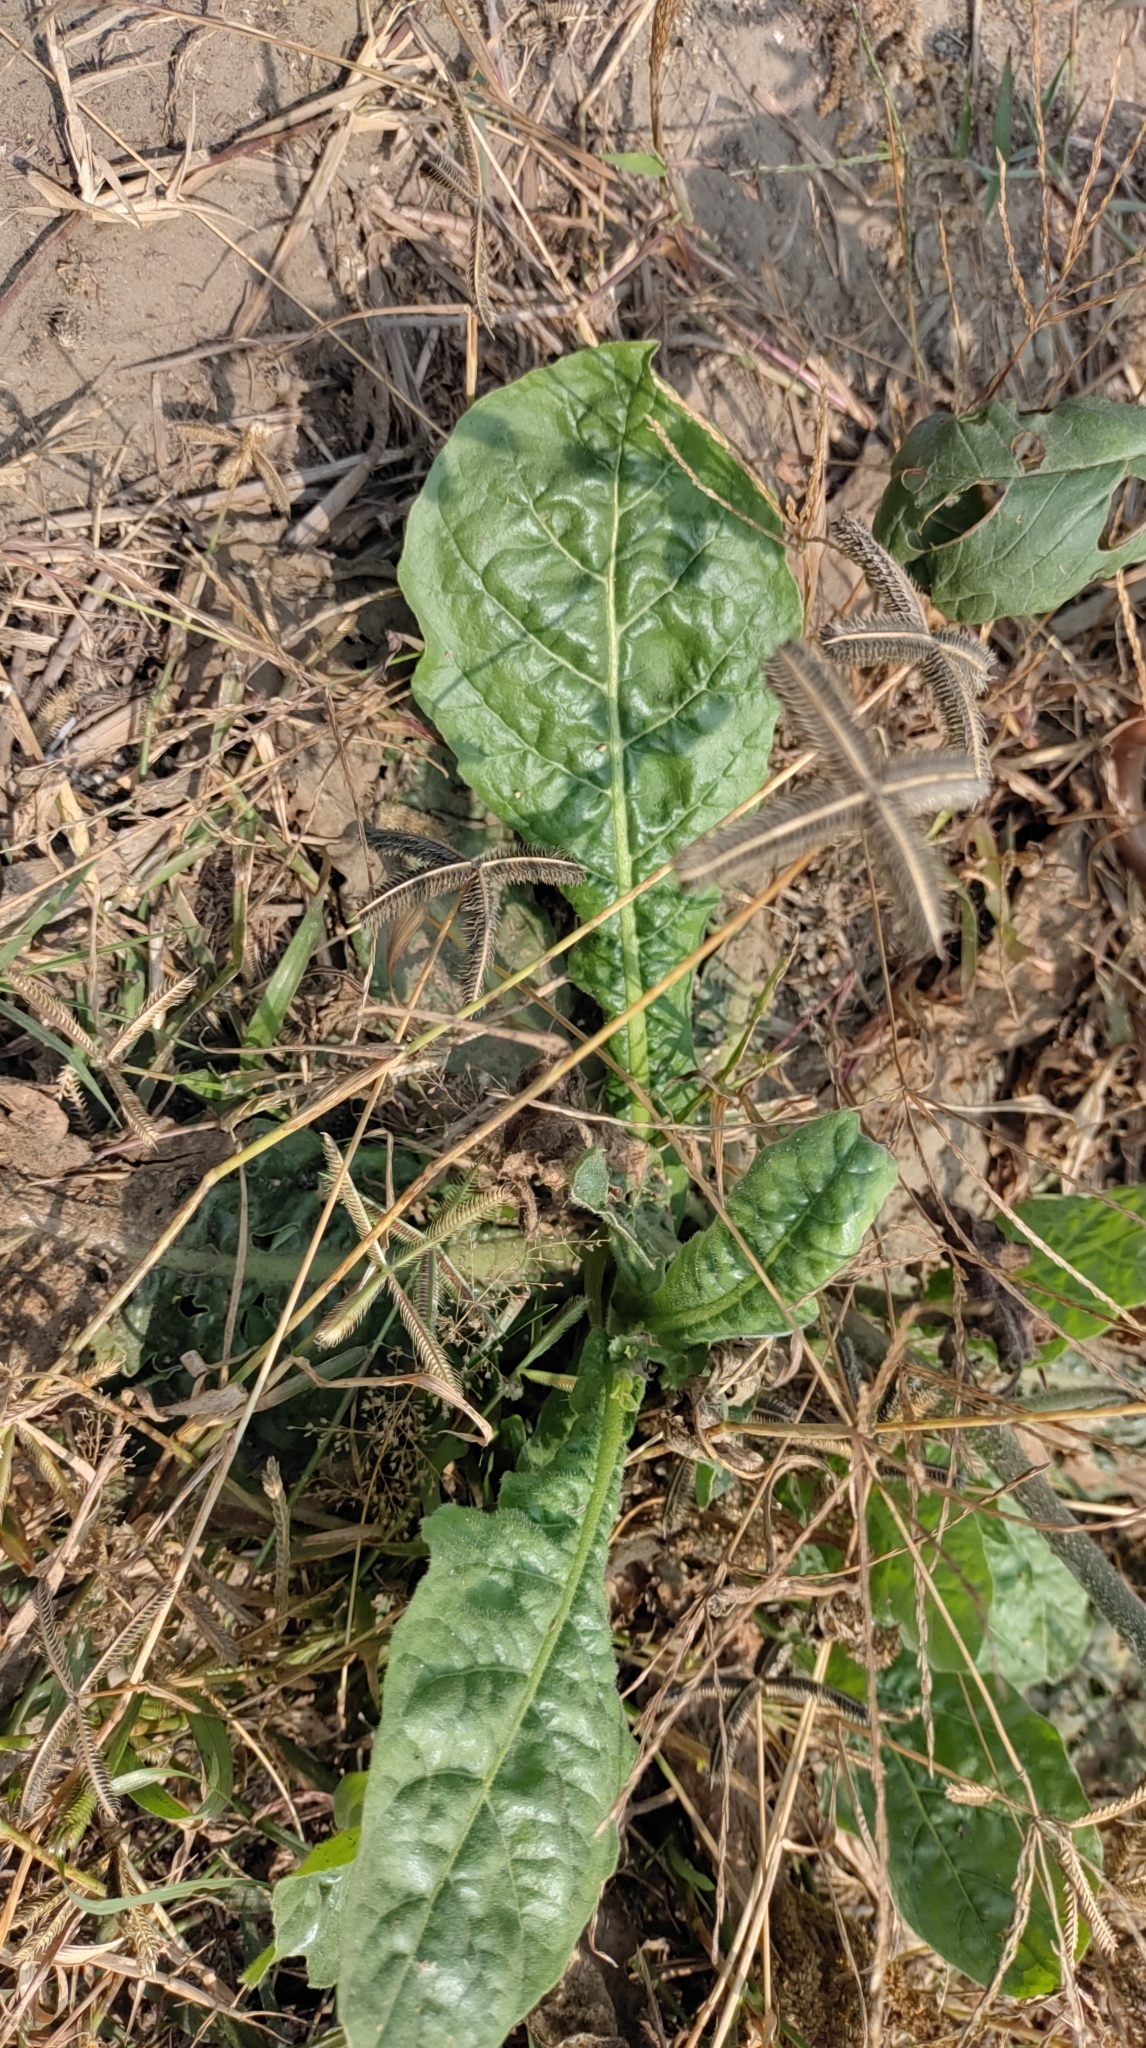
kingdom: Plantae
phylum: Tracheophyta
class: Magnoliopsida
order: Solanales
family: Solanaceae
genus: Nicotiana
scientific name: Nicotiana plumbaginifolia
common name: Tex-mex tobacco
